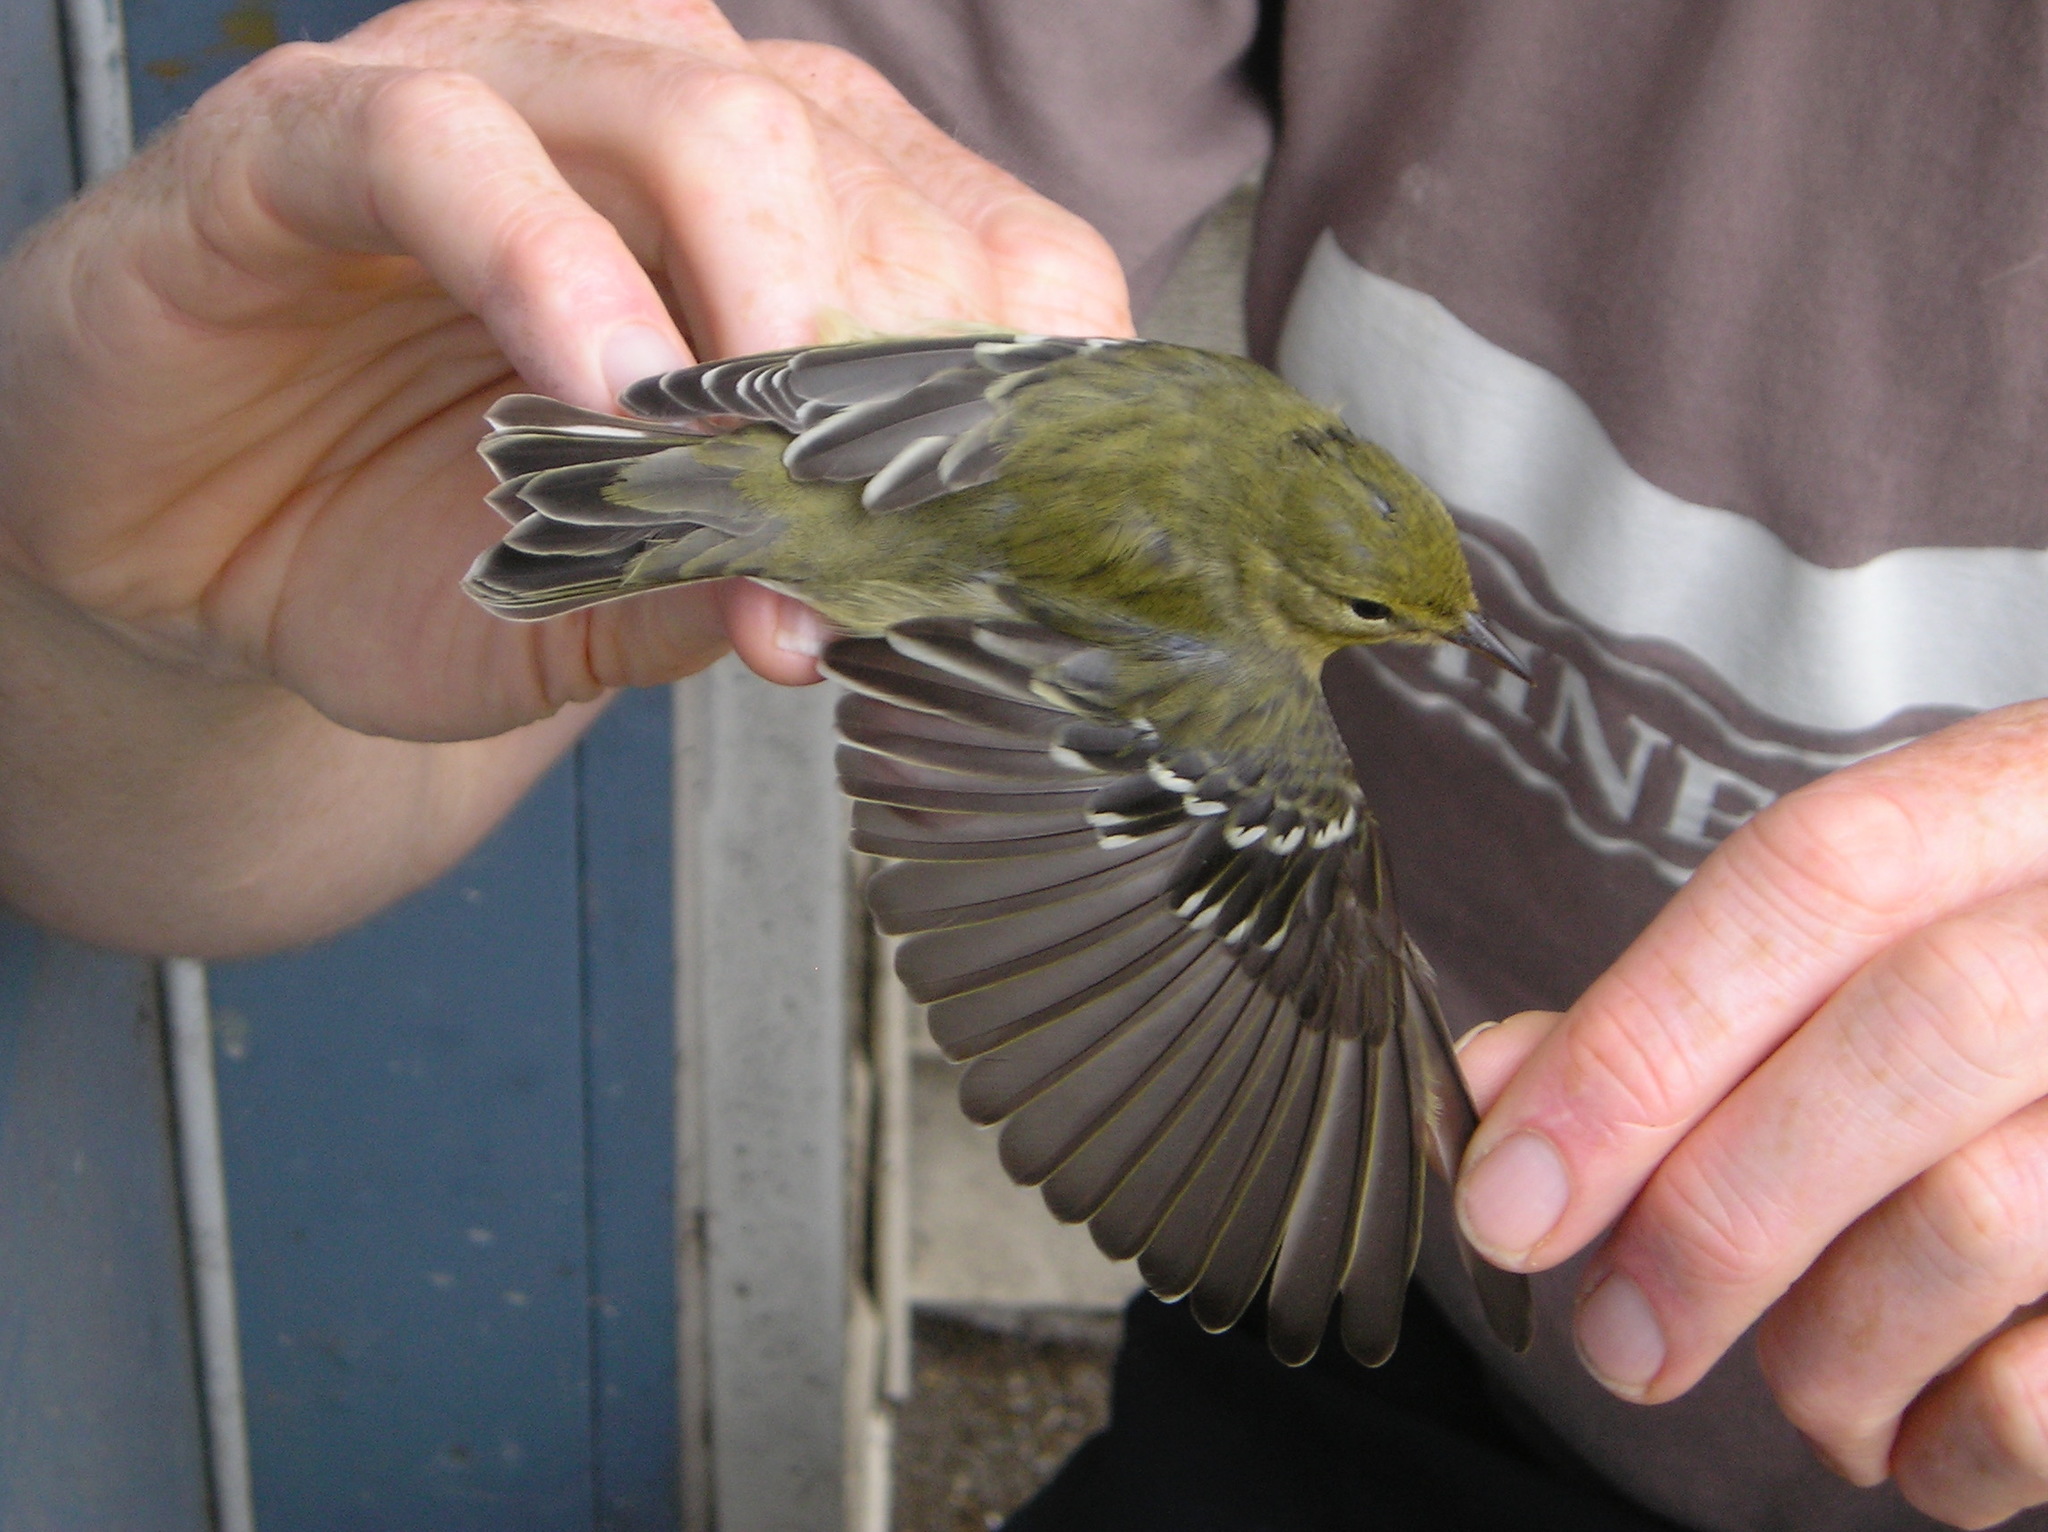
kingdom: Animalia
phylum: Chordata
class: Aves
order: Passeriformes
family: Parulidae
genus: Setophaga
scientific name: Setophaga striata
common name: Blackpoll warbler
